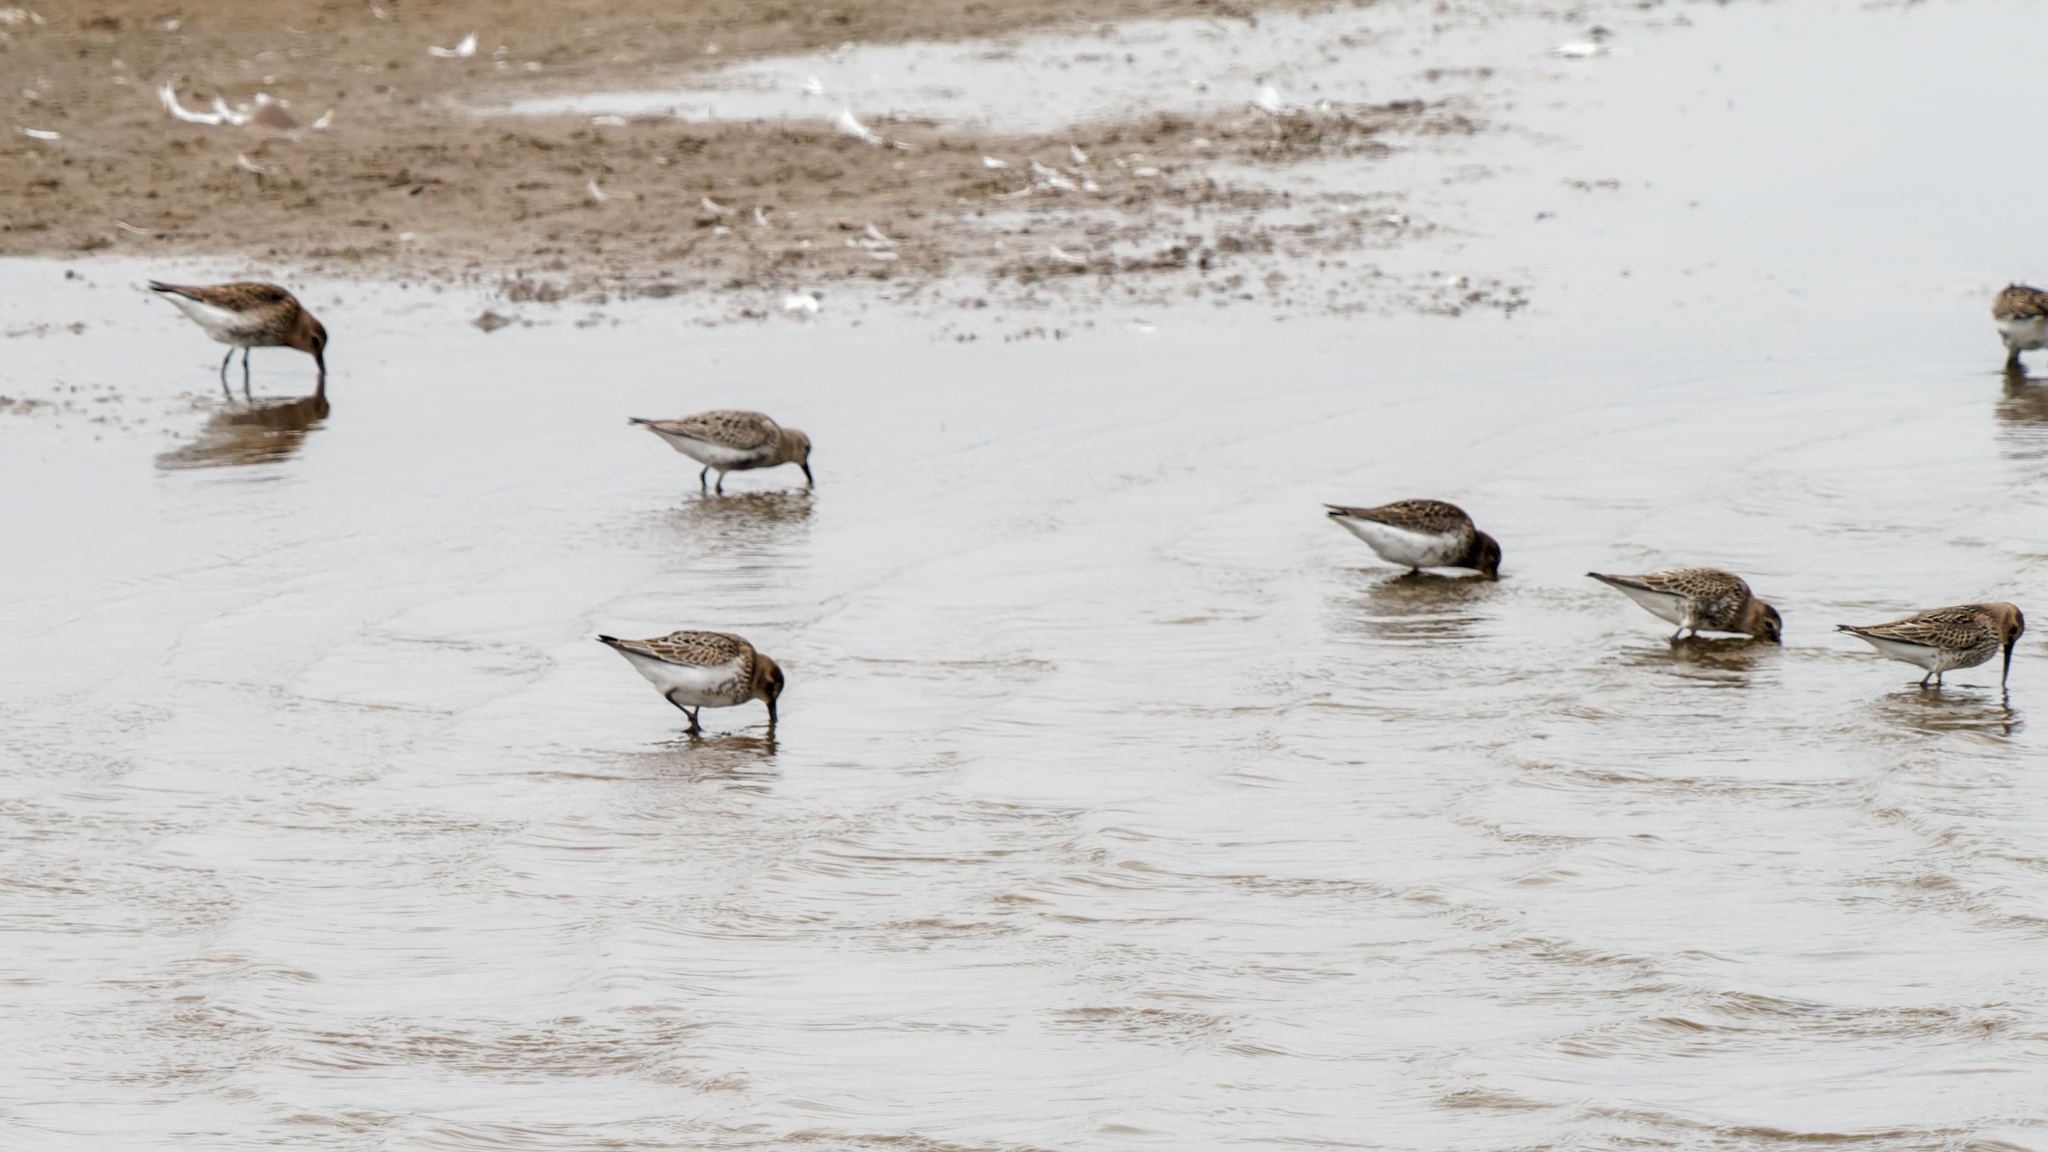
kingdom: Animalia
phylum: Chordata
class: Aves
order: Charadriiformes
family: Scolopacidae
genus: Calidris
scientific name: Calidris alpina
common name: Dunlin
